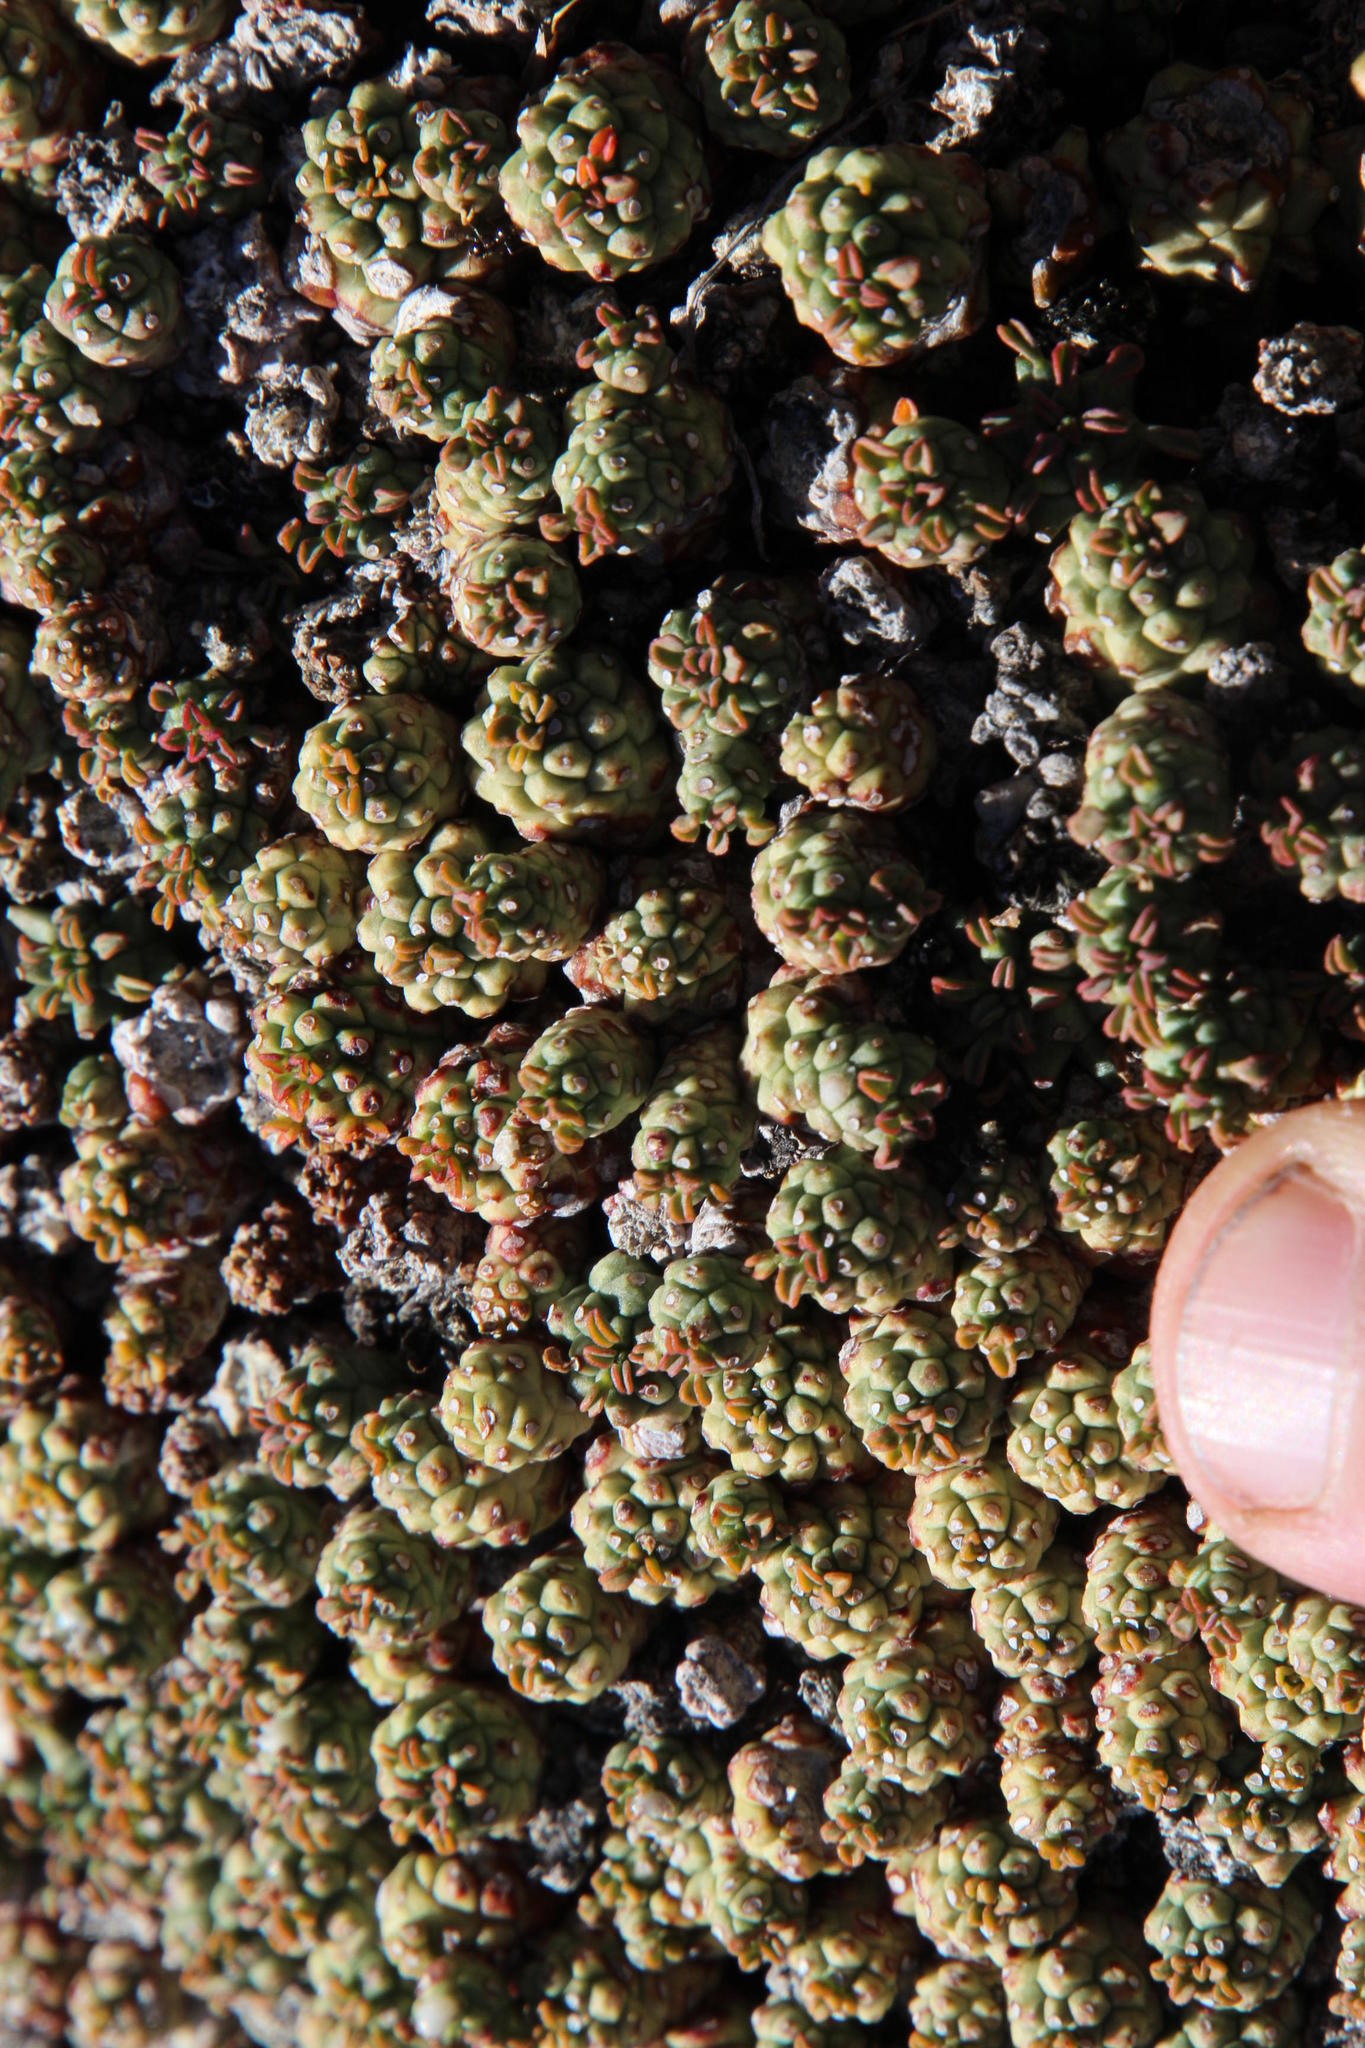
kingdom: Plantae
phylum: Tracheophyta
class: Magnoliopsida
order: Malpighiales
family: Euphorbiaceae
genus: Euphorbia
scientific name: Euphorbia clavarioides
